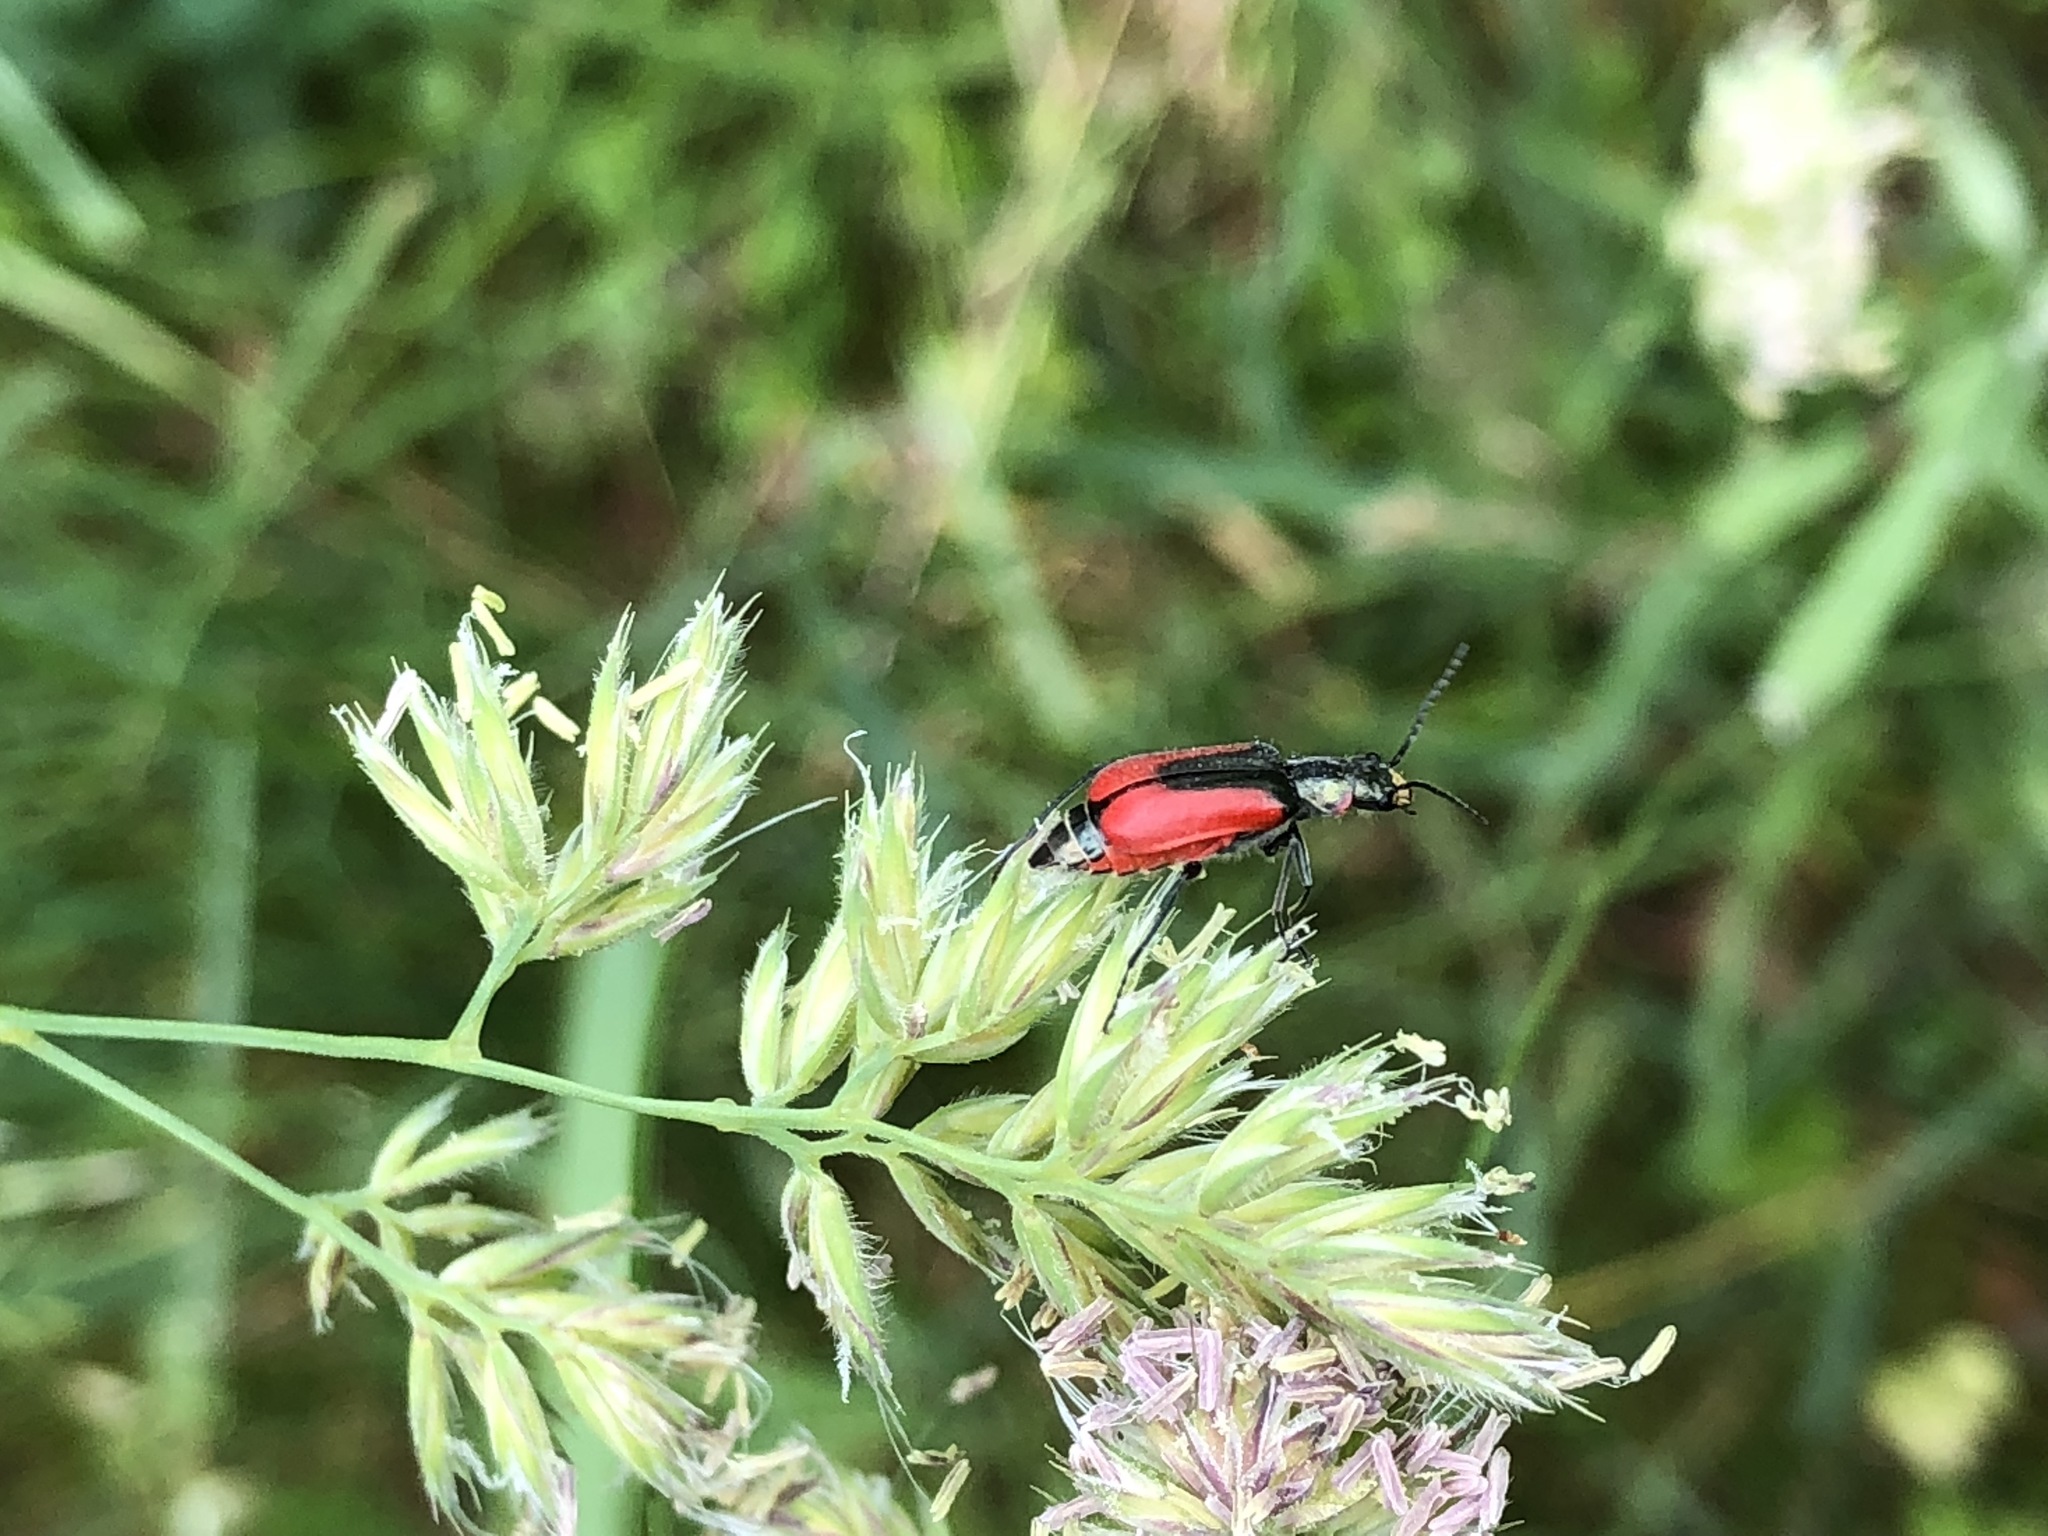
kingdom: Animalia
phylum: Arthropoda
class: Insecta
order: Coleoptera
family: Melyridae
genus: Malachius
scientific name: Malachius aeneus
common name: Scarlet malachite beetle
